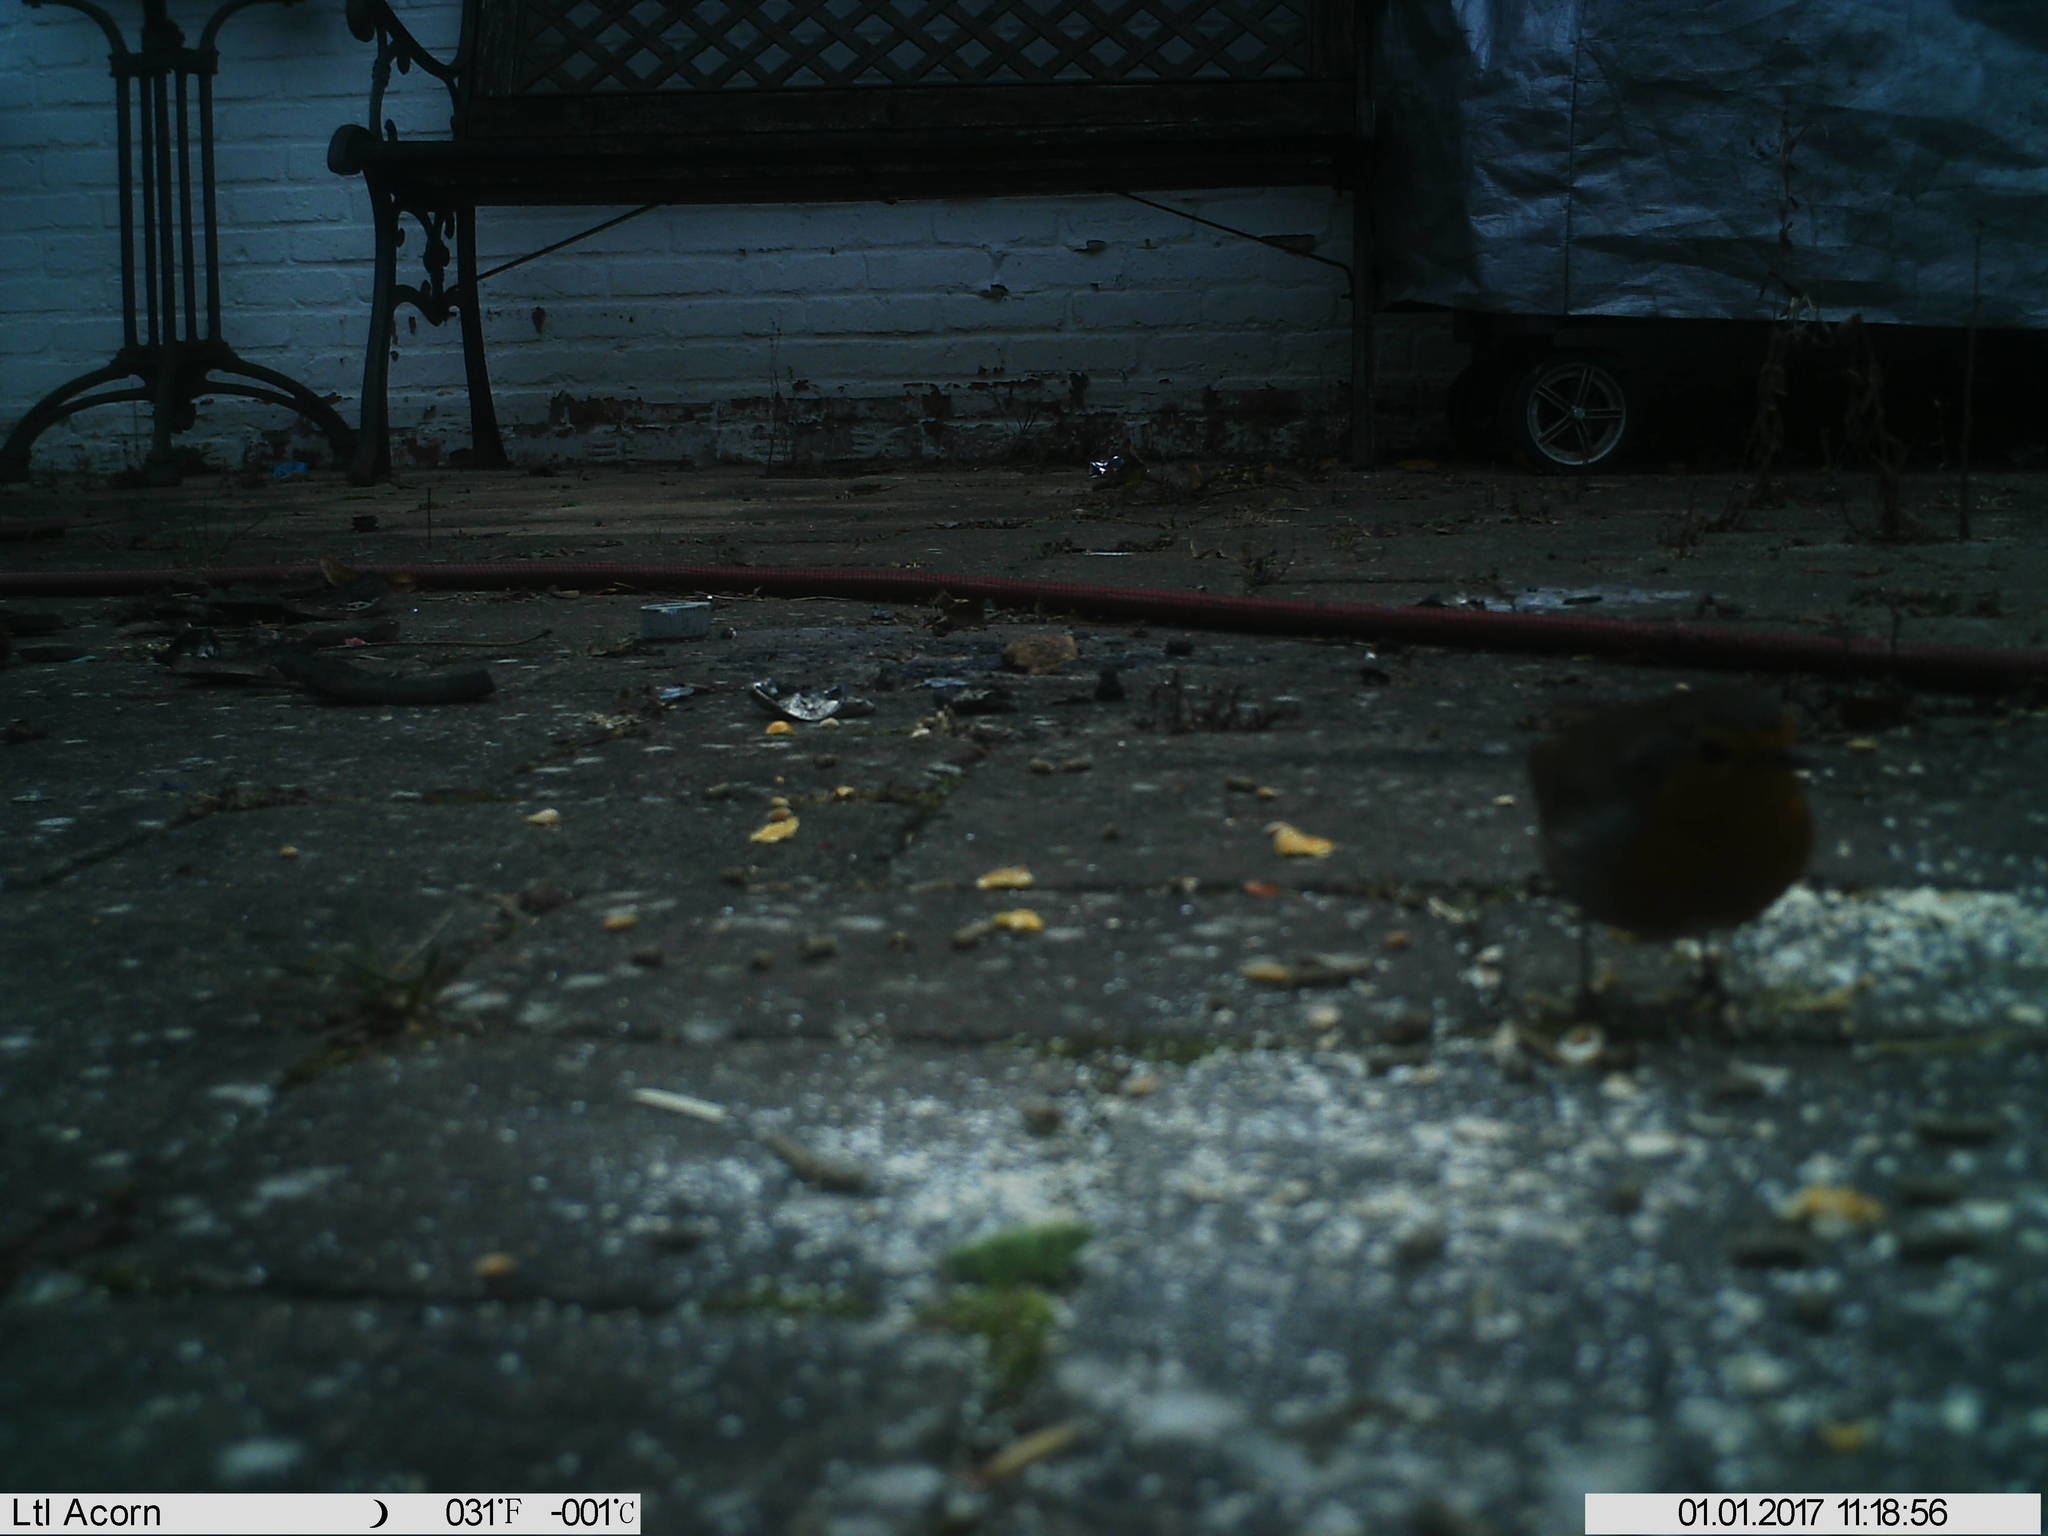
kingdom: Animalia
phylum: Chordata
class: Aves
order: Passeriformes
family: Muscicapidae
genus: Erithacus
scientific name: Erithacus rubecula
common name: European robin
